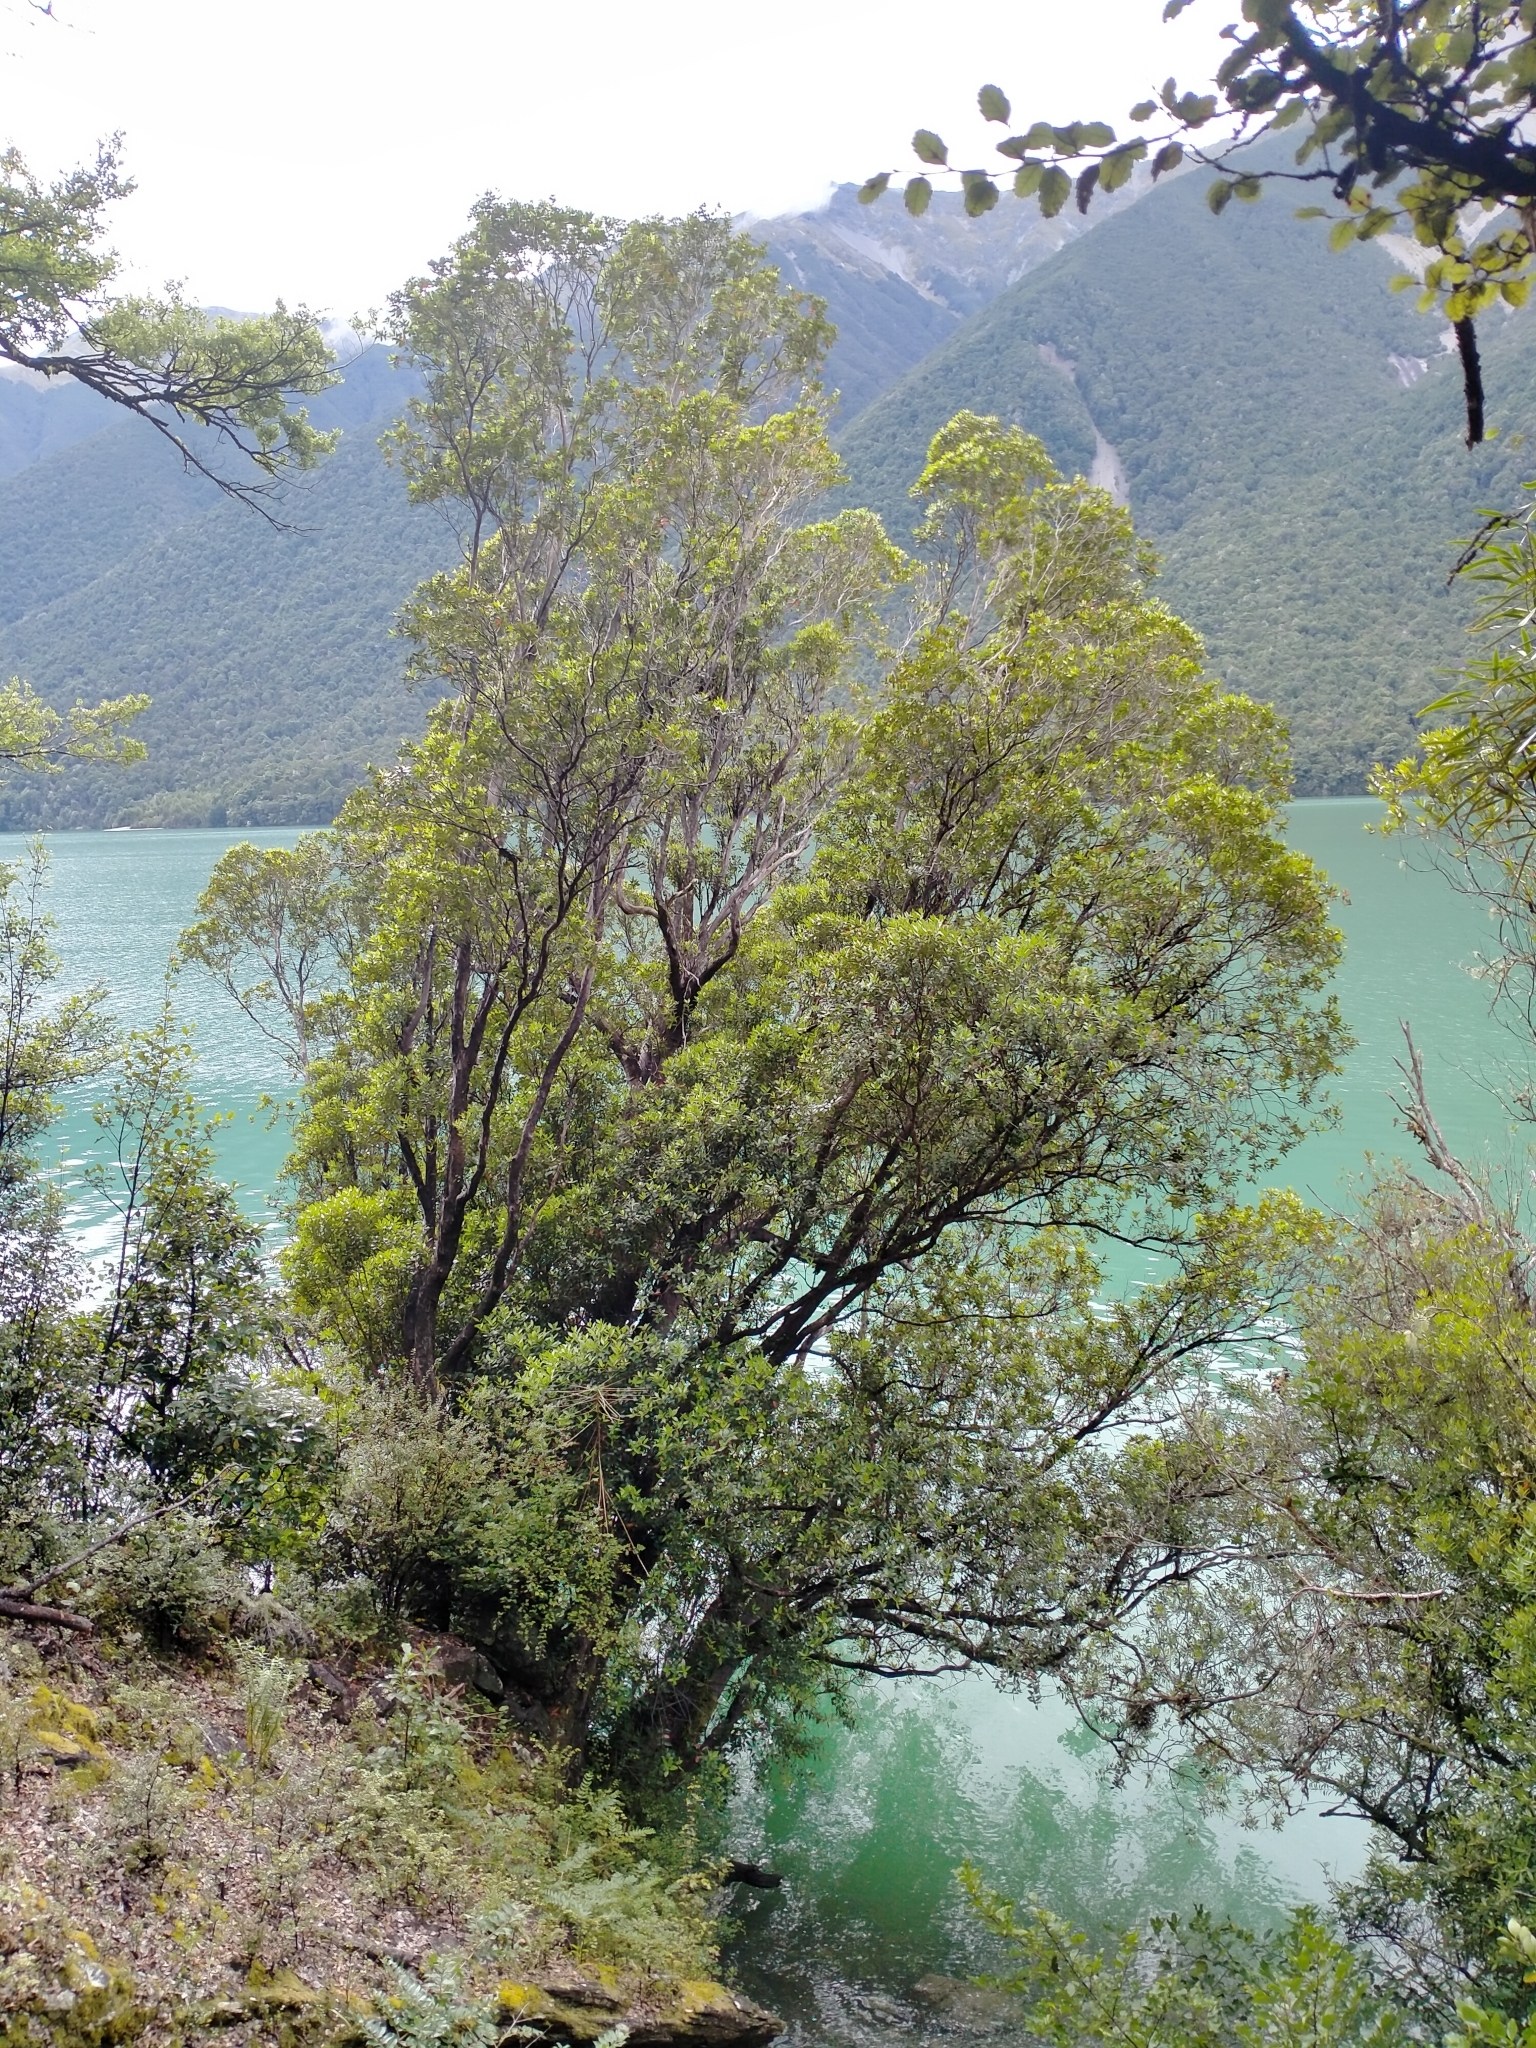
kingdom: Plantae
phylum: Tracheophyta
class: Magnoliopsida
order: Myrtales
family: Myrtaceae
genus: Metrosideros
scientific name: Metrosideros umbellata
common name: Southern rata
